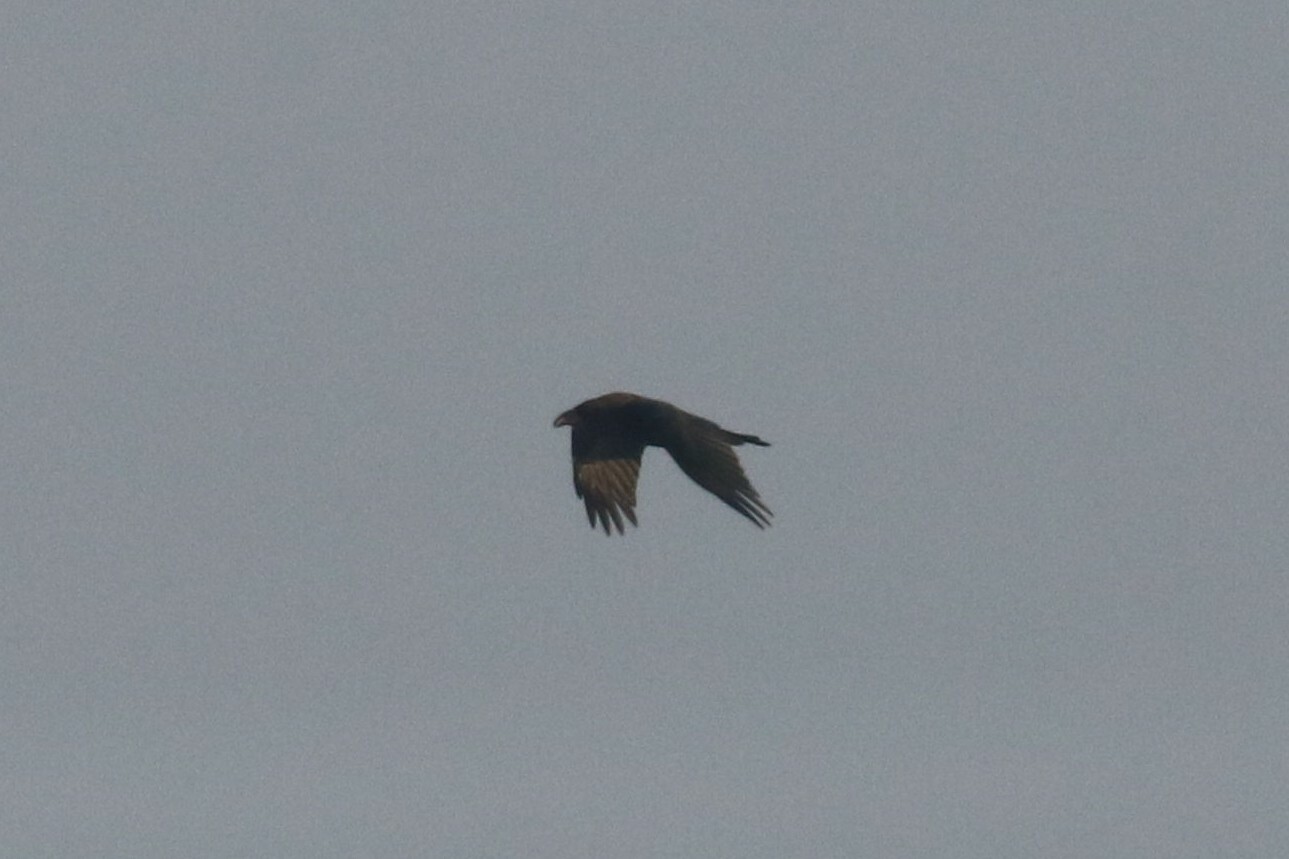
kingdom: Animalia
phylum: Chordata
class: Aves
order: Passeriformes
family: Corvidae
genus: Corvus
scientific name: Corvus corax
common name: Common raven
